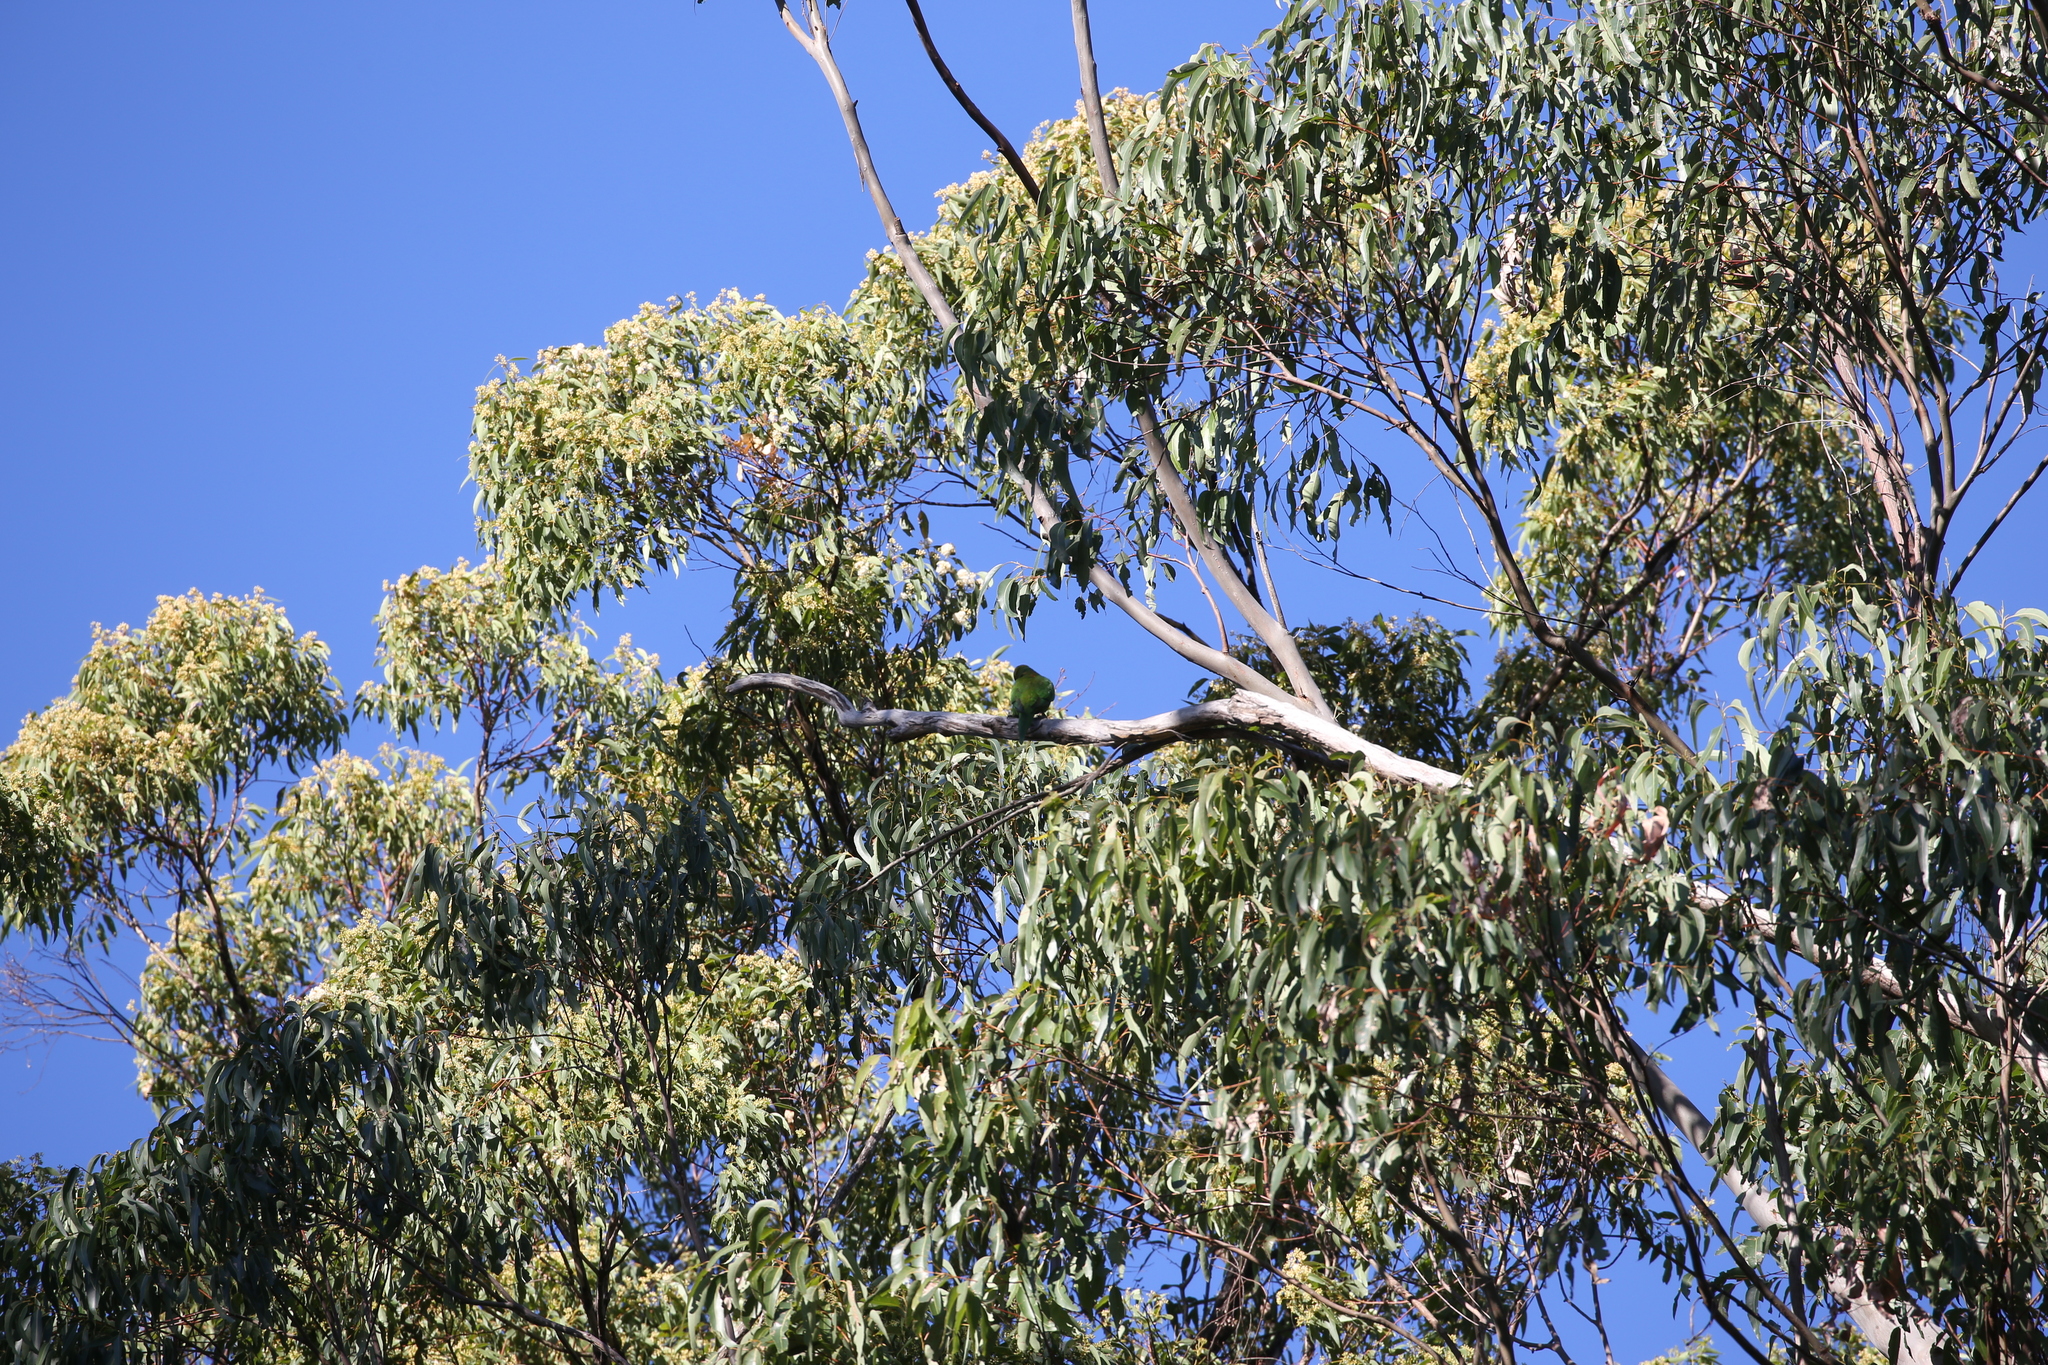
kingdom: Animalia
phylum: Chordata
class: Aves
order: Psittaciformes
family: Psittacidae
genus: Trichoglossus
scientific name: Trichoglossus haematodus
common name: Coconut lorikeet
